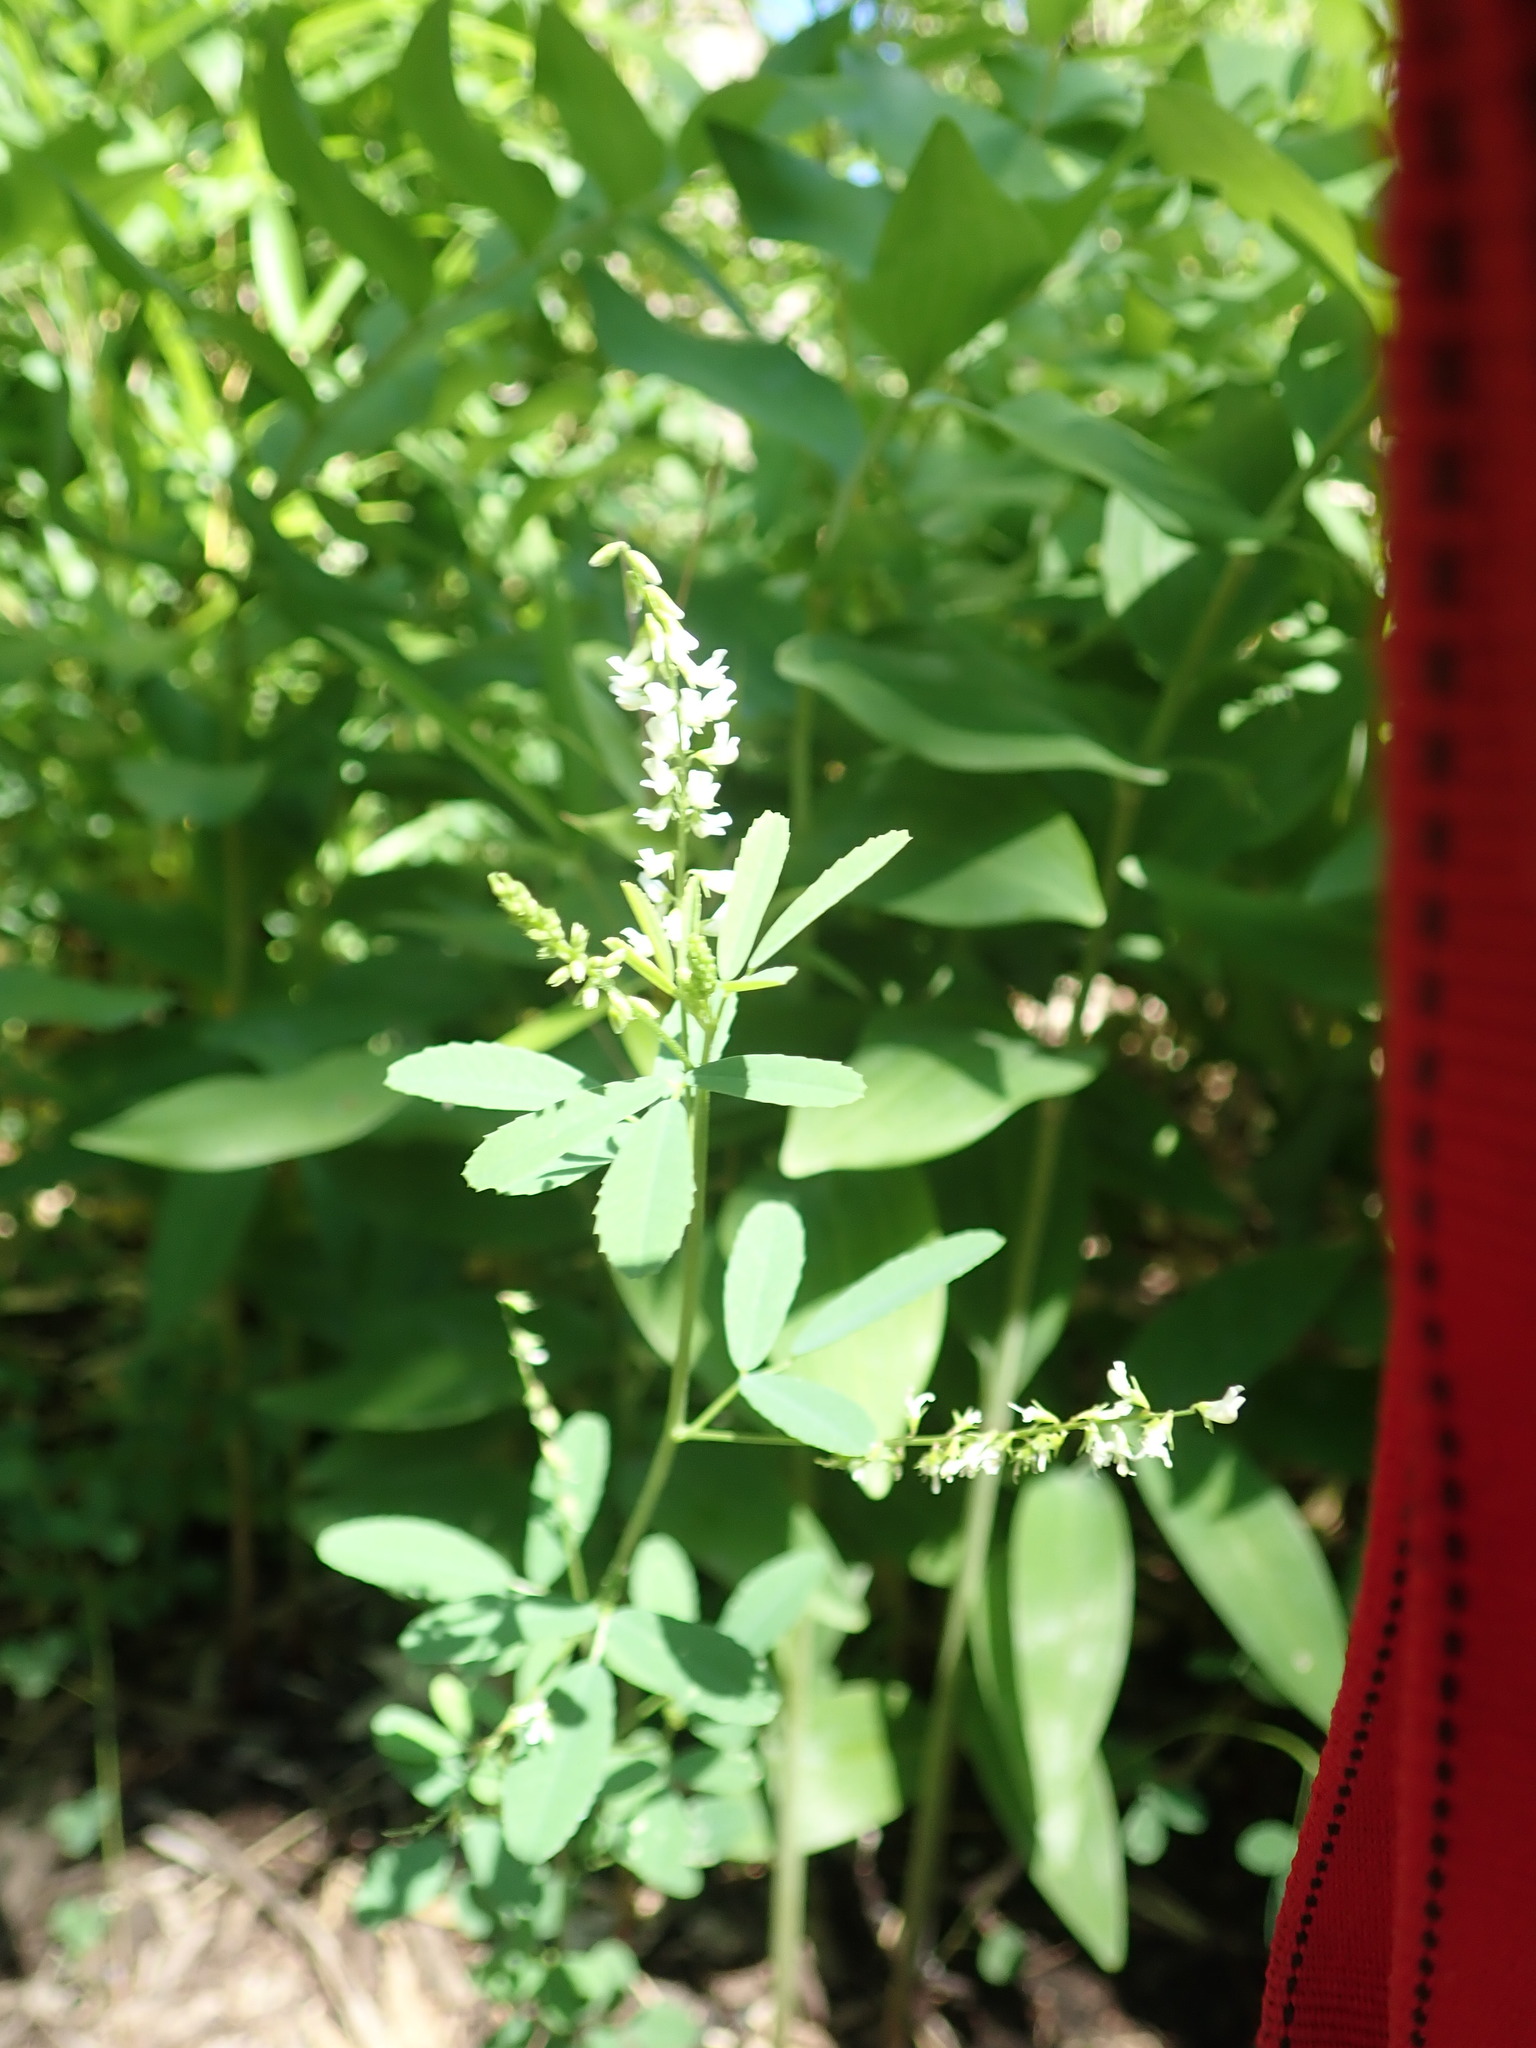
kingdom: Plantae
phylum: Tracheophyta
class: Magnoliopsida
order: Fabales
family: Fabaceae
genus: Melilotus
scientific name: Melilotus albus
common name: White melilot
